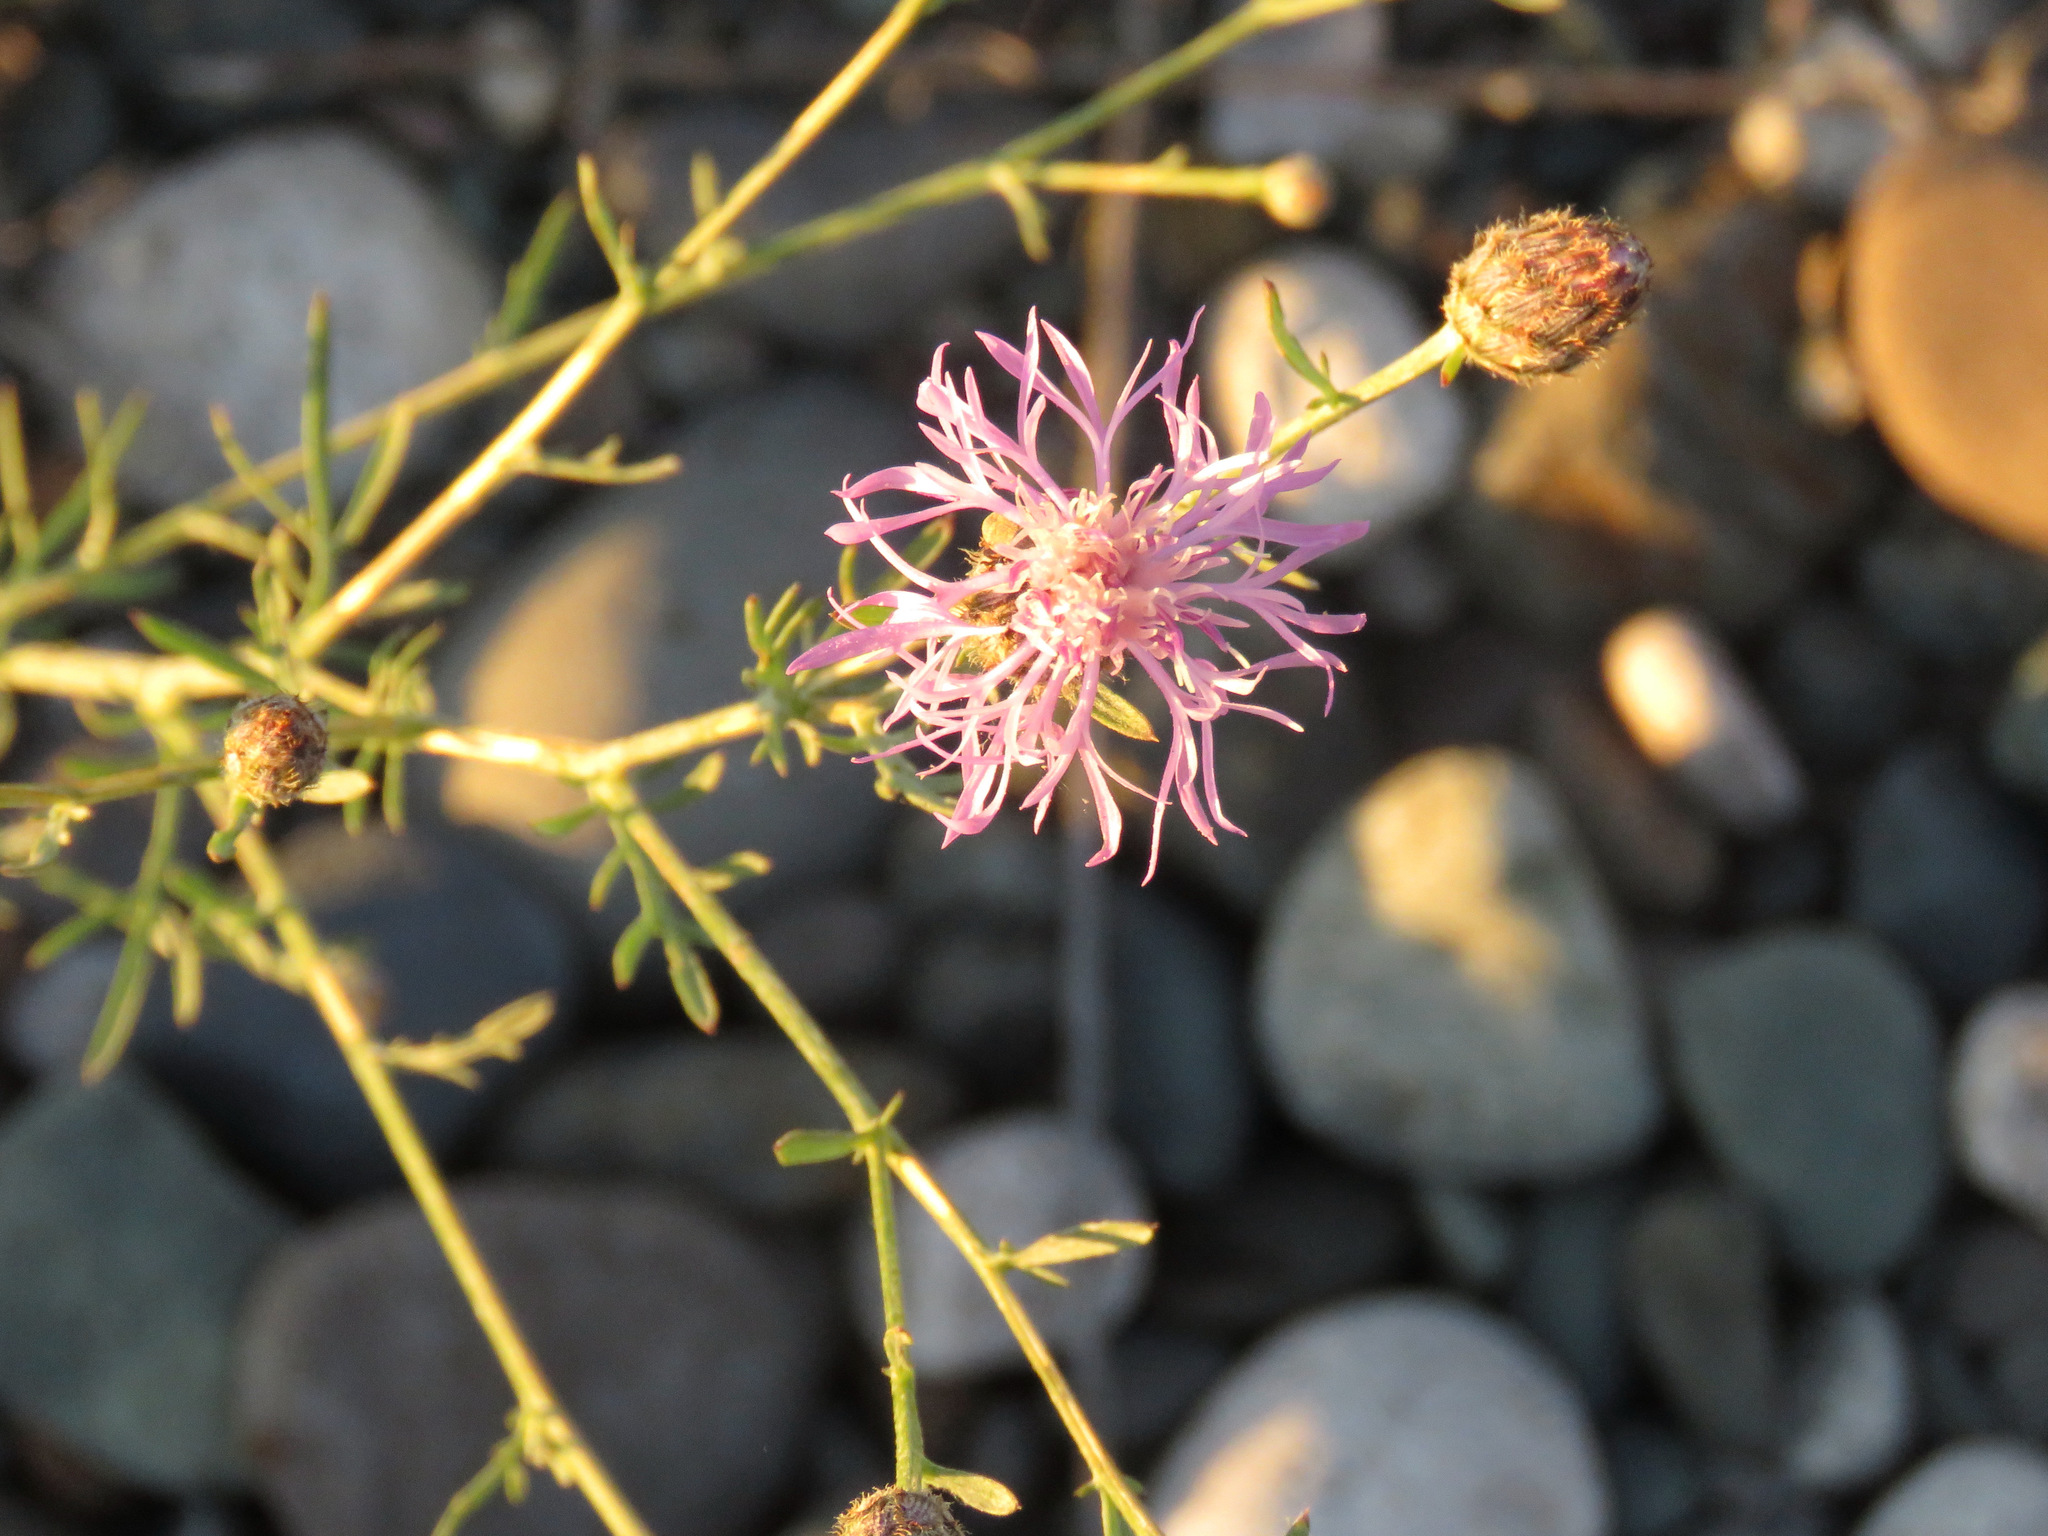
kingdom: Plantae
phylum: Tracheophyta
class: Magnoliopsida
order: Asterales
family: Asteraceae
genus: Centaurea
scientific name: Centaurea stoebe
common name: Spotted knapweed
